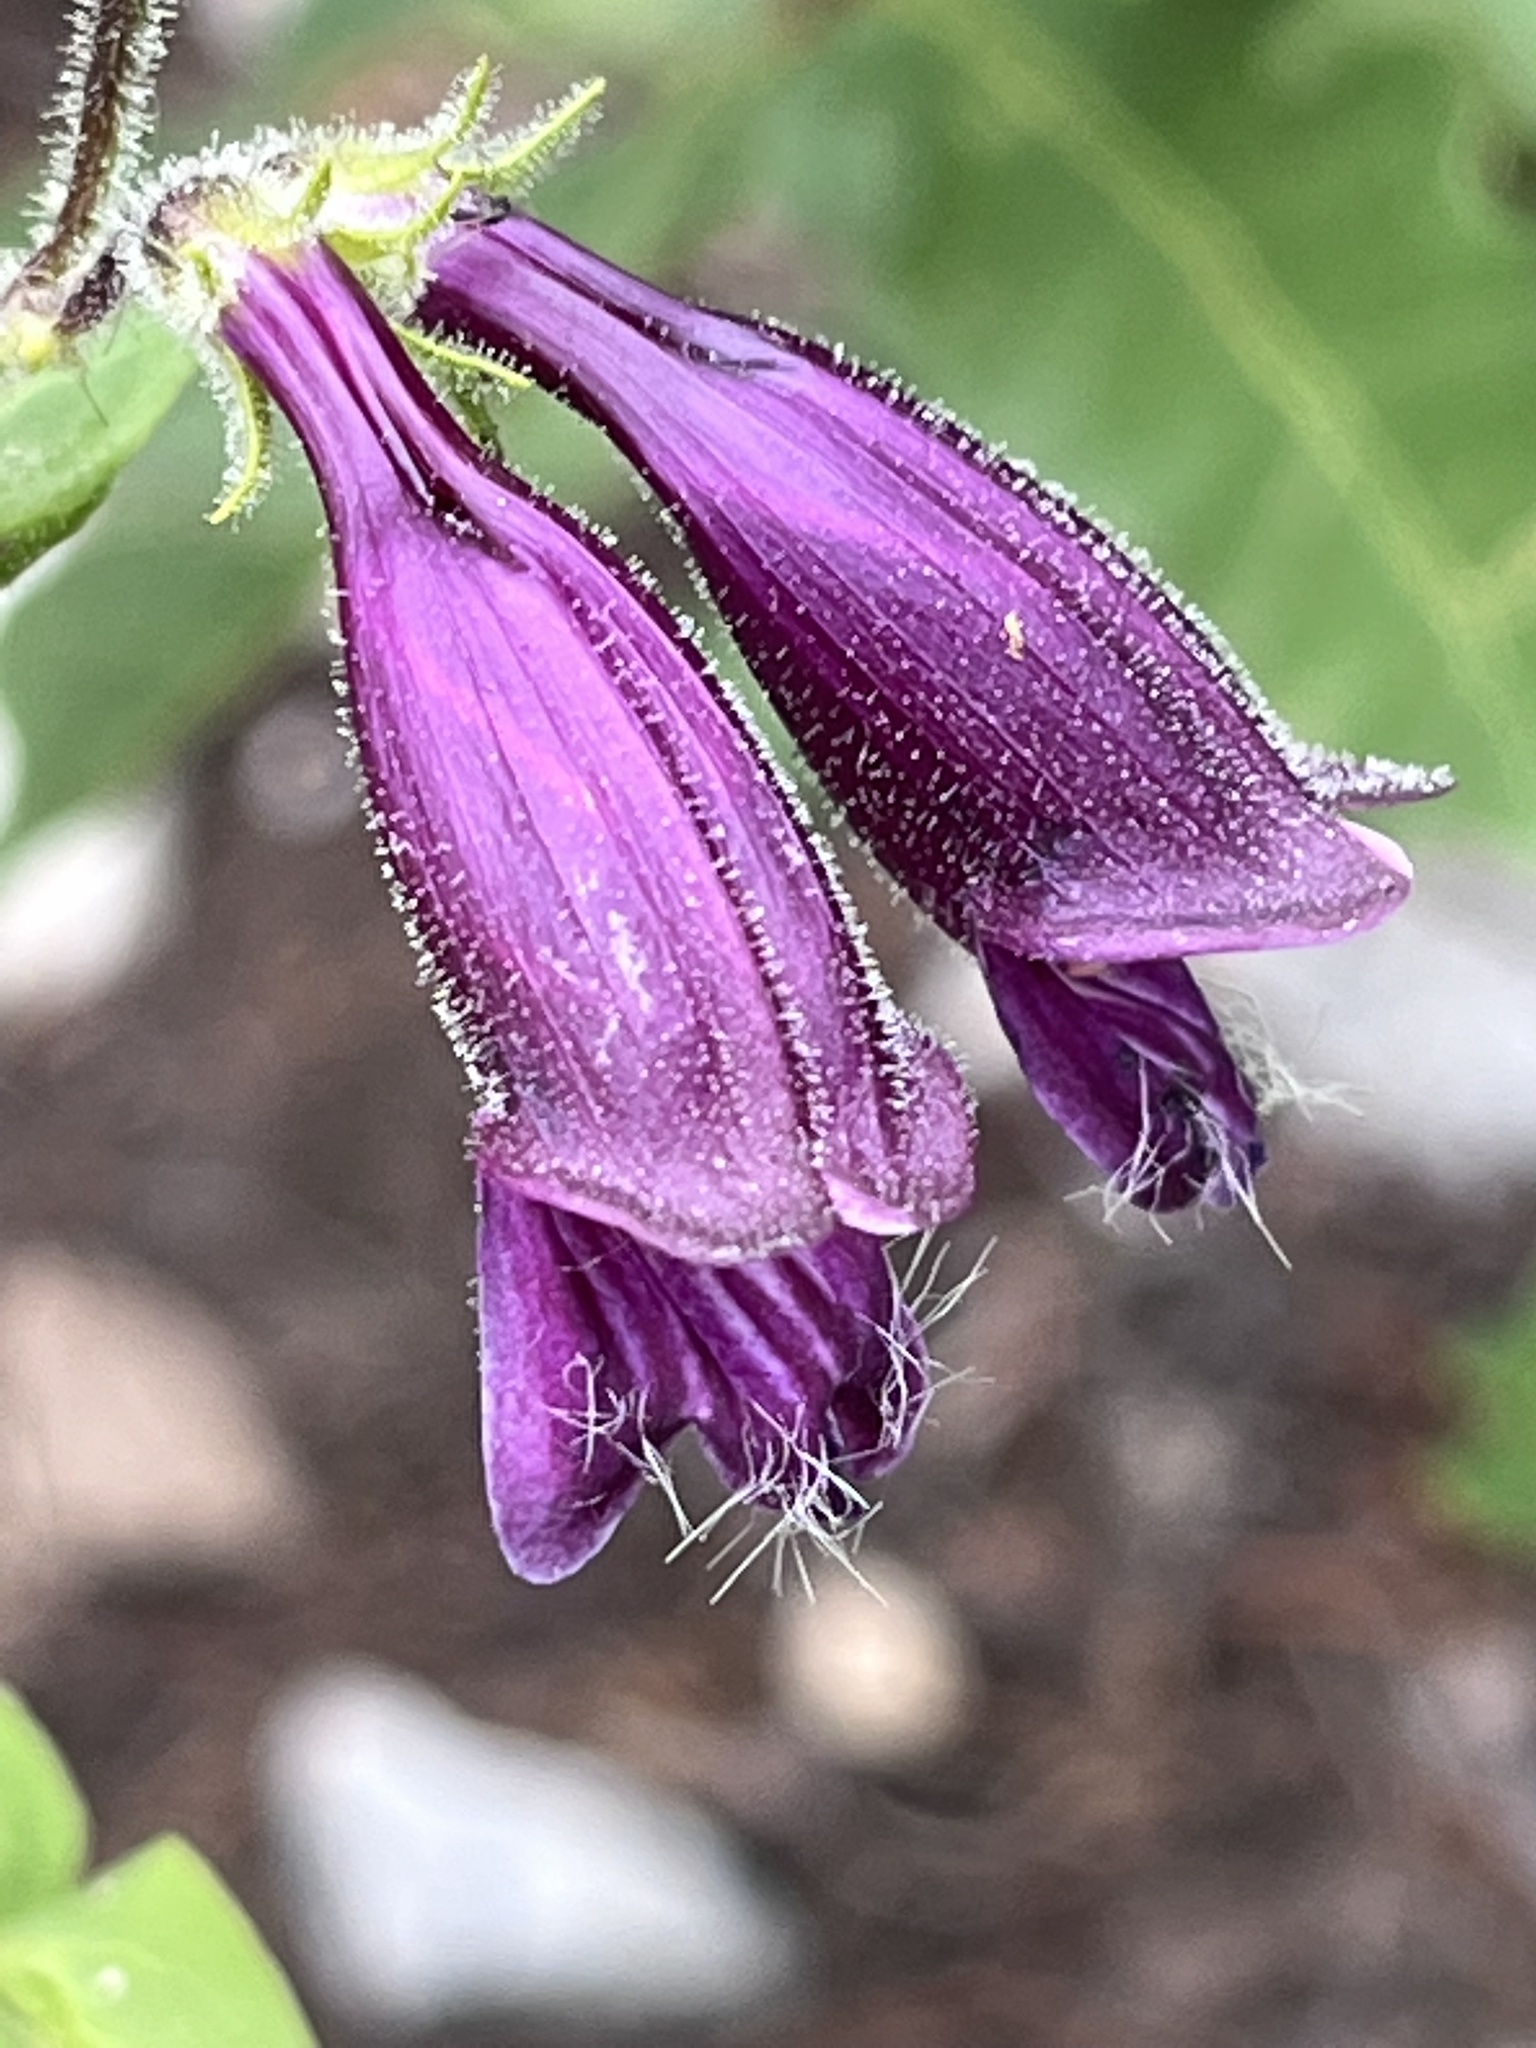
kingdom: Plantae
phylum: Tracheophyta
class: Magnoliopsida
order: Lamiales
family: Plantaginaceae
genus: Penstemon
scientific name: Penstemon whippleanus
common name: Whipple's penstemon
